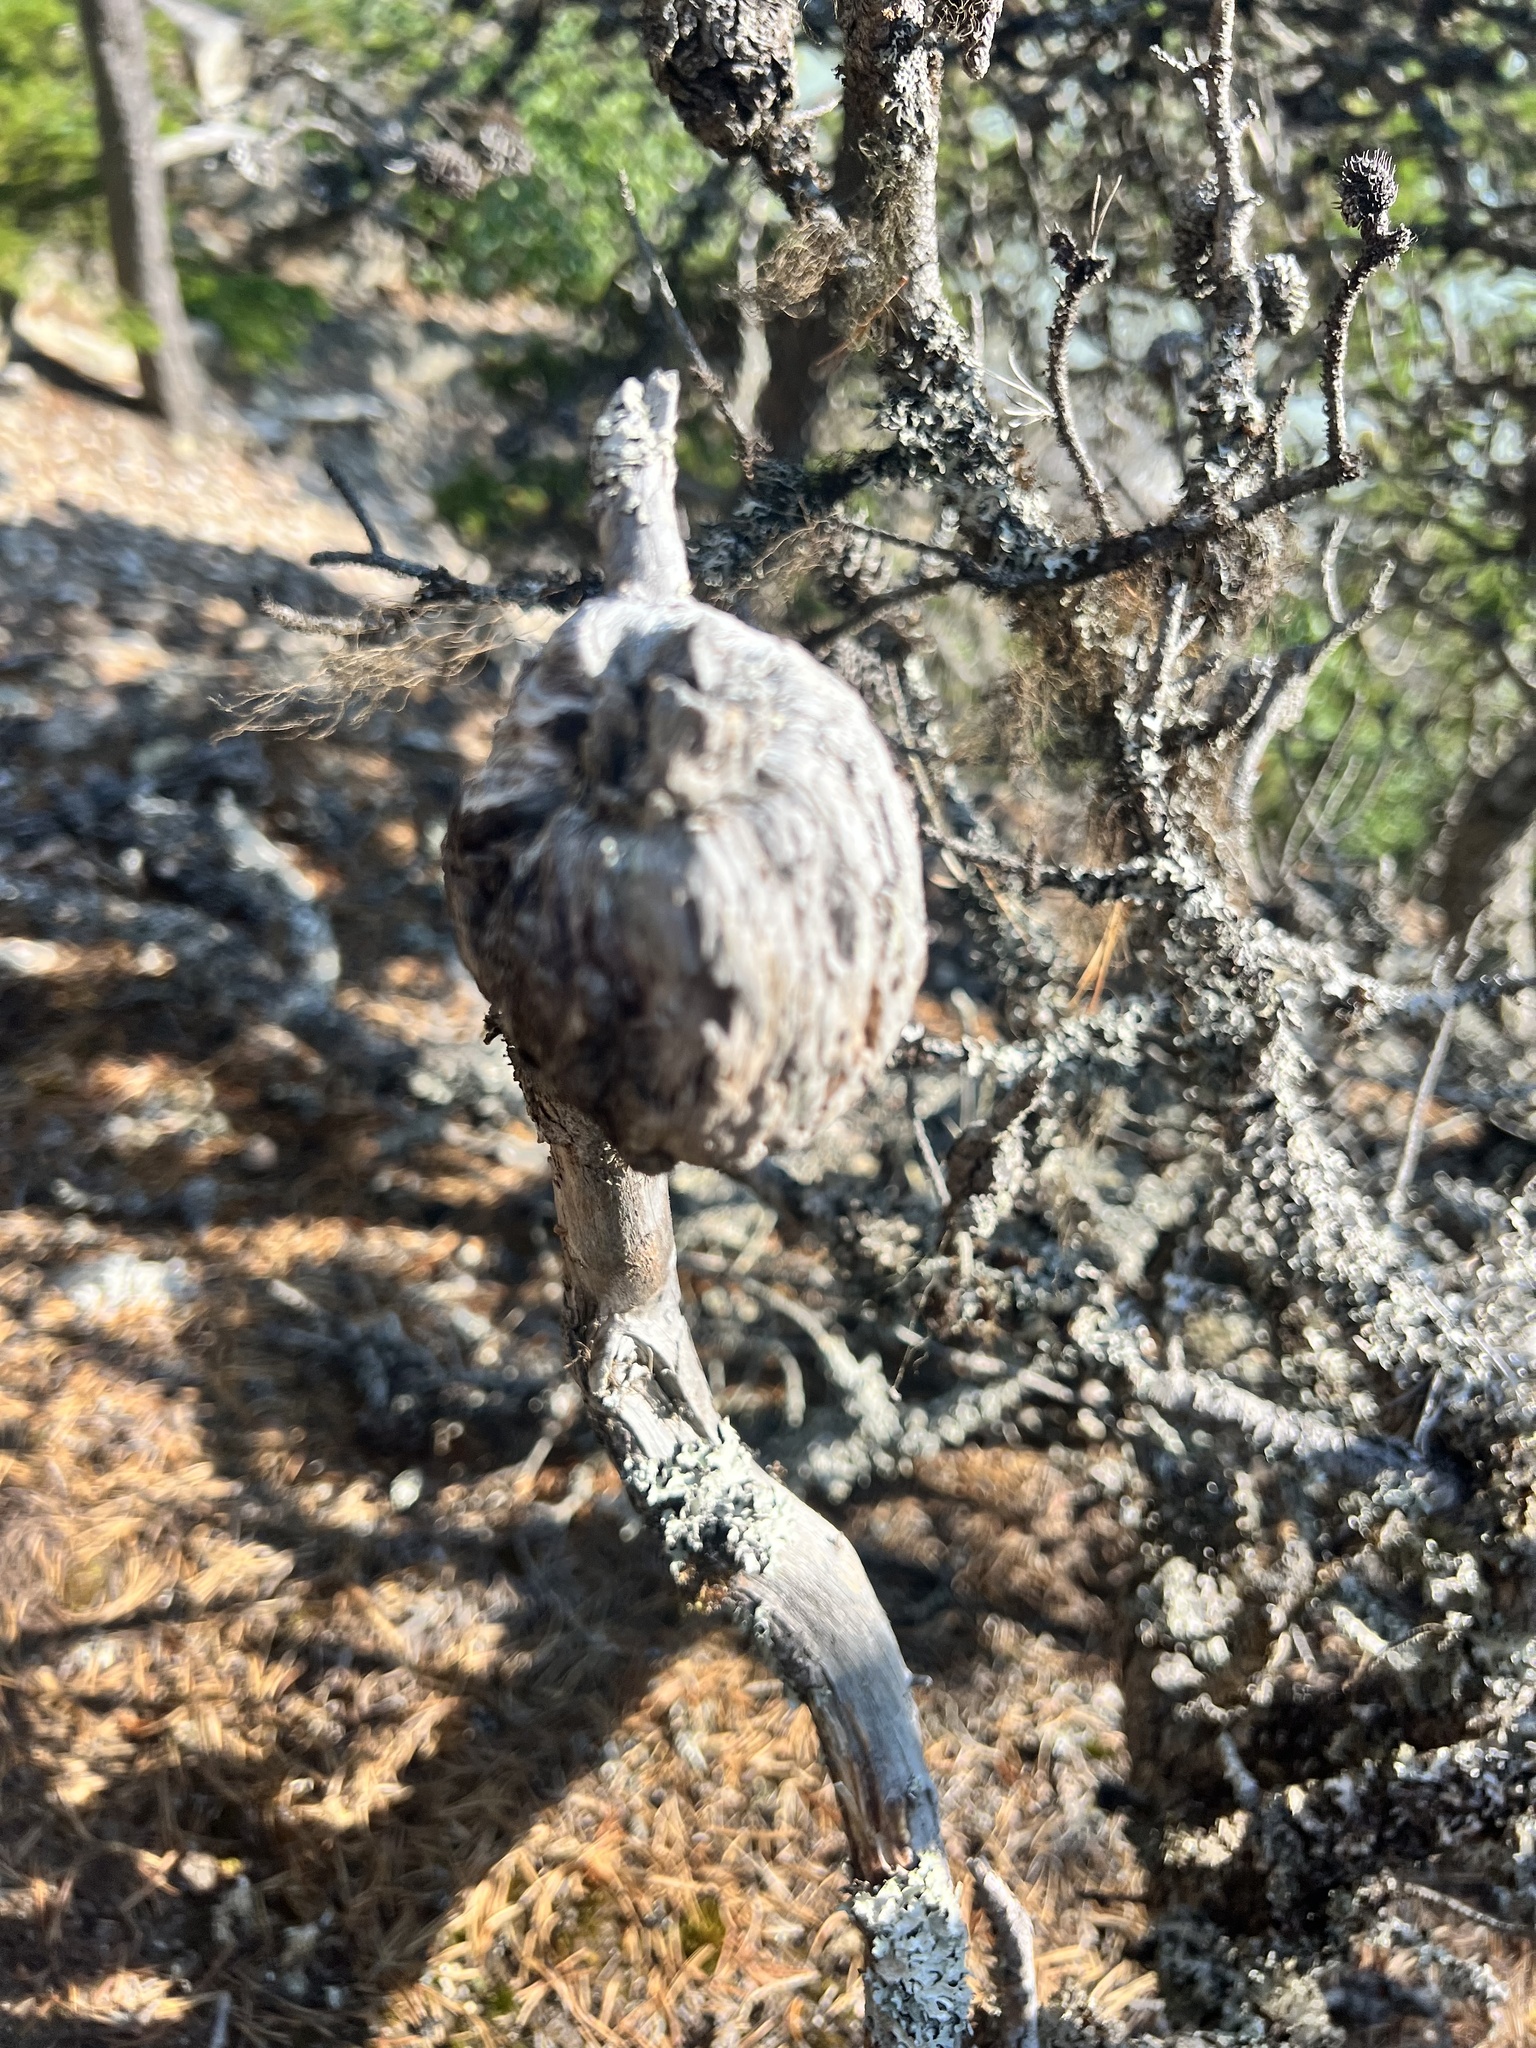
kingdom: Fungi
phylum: Basidiomycota
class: Pucciniomycetes
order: Pucciniales
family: Cronartiaceae
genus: Cronartium
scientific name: Cronartium harknessii
